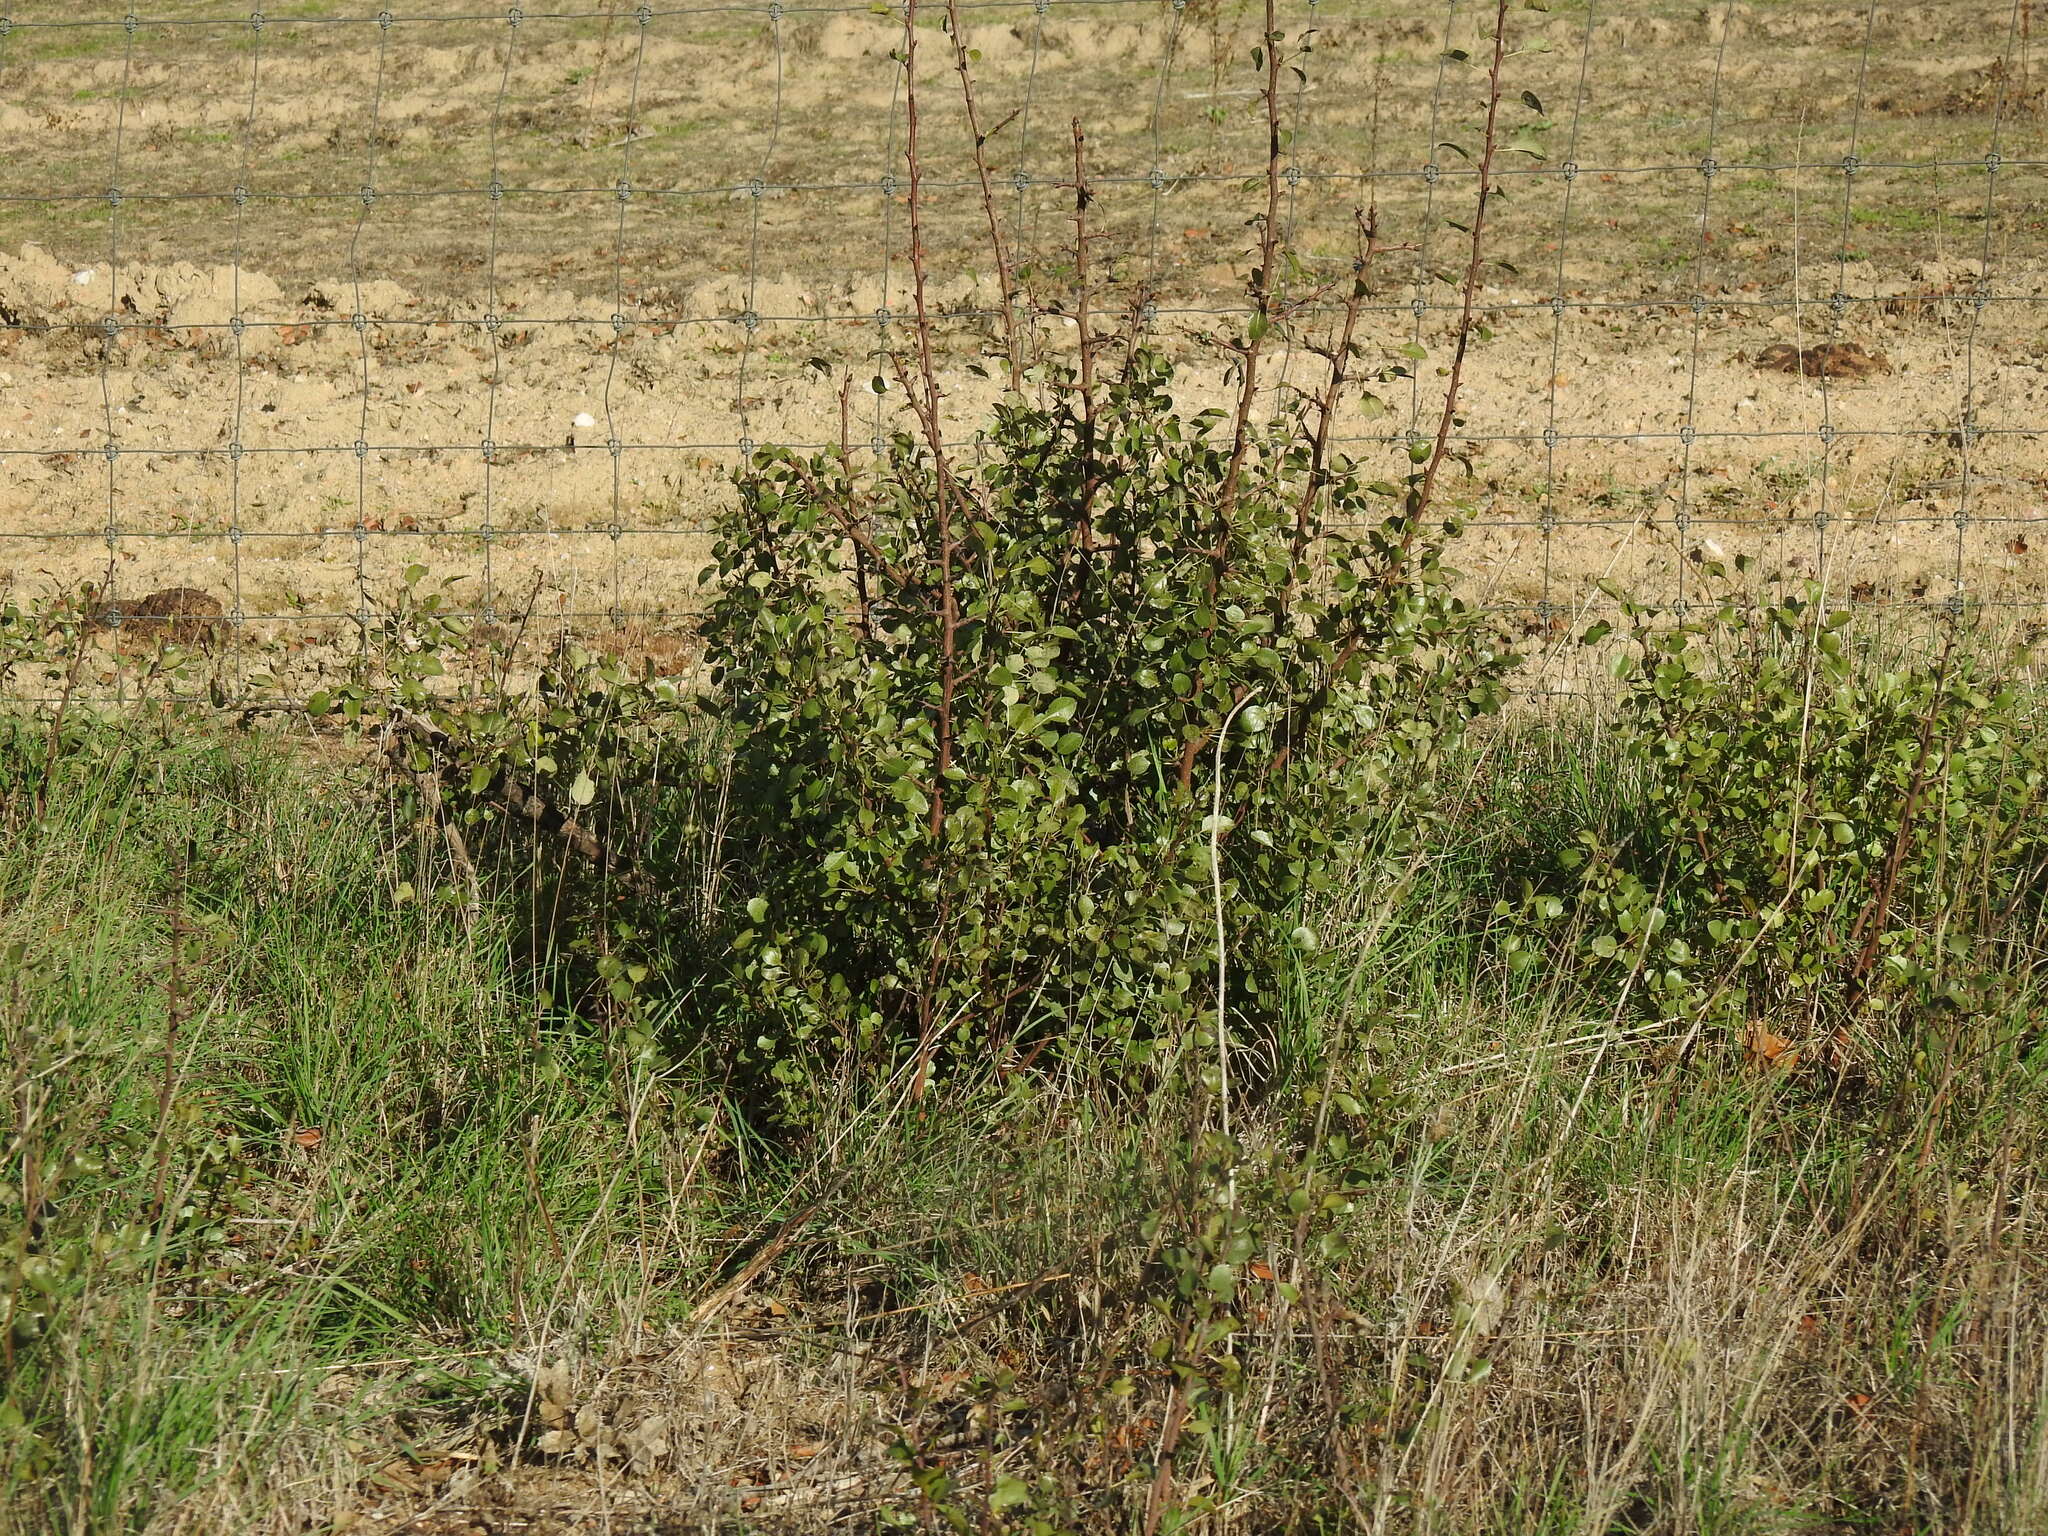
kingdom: Plantae
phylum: Tracheophyta
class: Magnoliopsida
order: Rosales
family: Rosaceae
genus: Pyrus
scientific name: Pyrus bourgaeana
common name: Iberian pear
